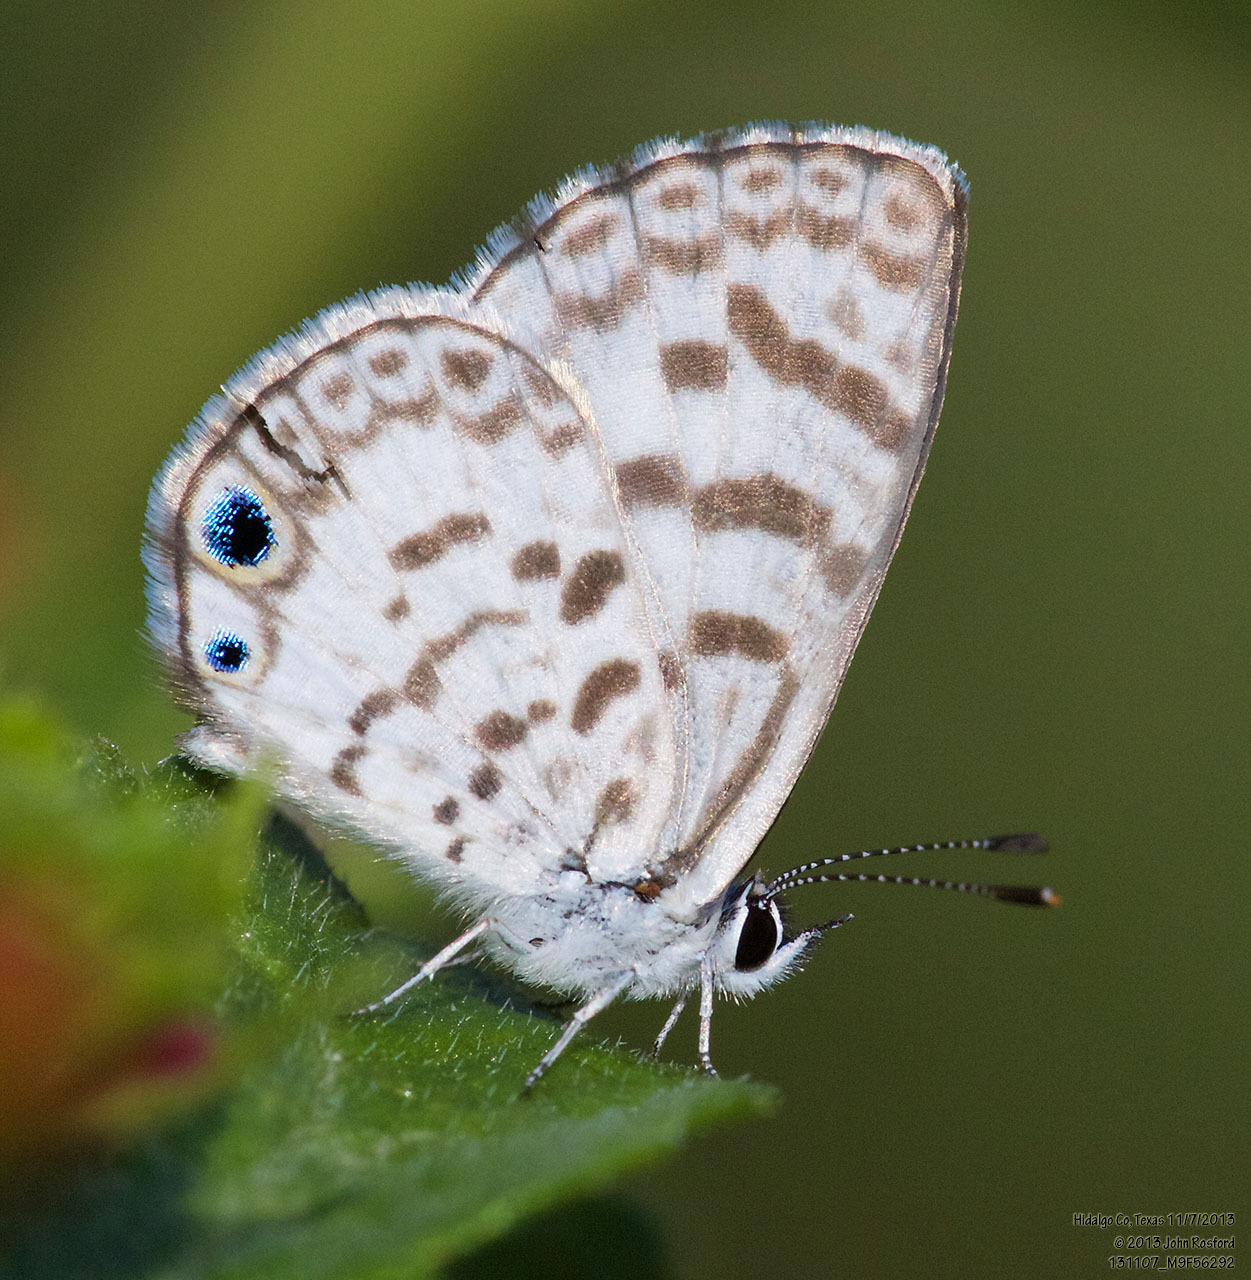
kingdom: Animalia
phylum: Arthropoda
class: Insecta
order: Lepidoptera
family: Lycaenidae
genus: Leptotes
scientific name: Leptotes cassius
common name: Cassius blue
